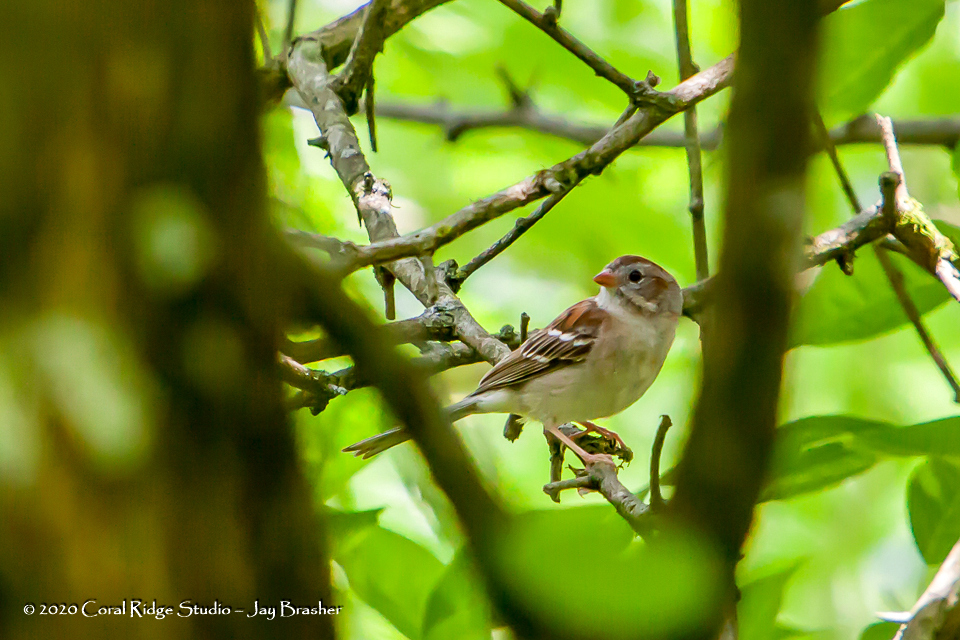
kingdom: Animalia
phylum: Chordata
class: Aves
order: Passeriformes
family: Passerellidae
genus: Spizella
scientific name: Spizella pusilla
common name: Field sparrow
